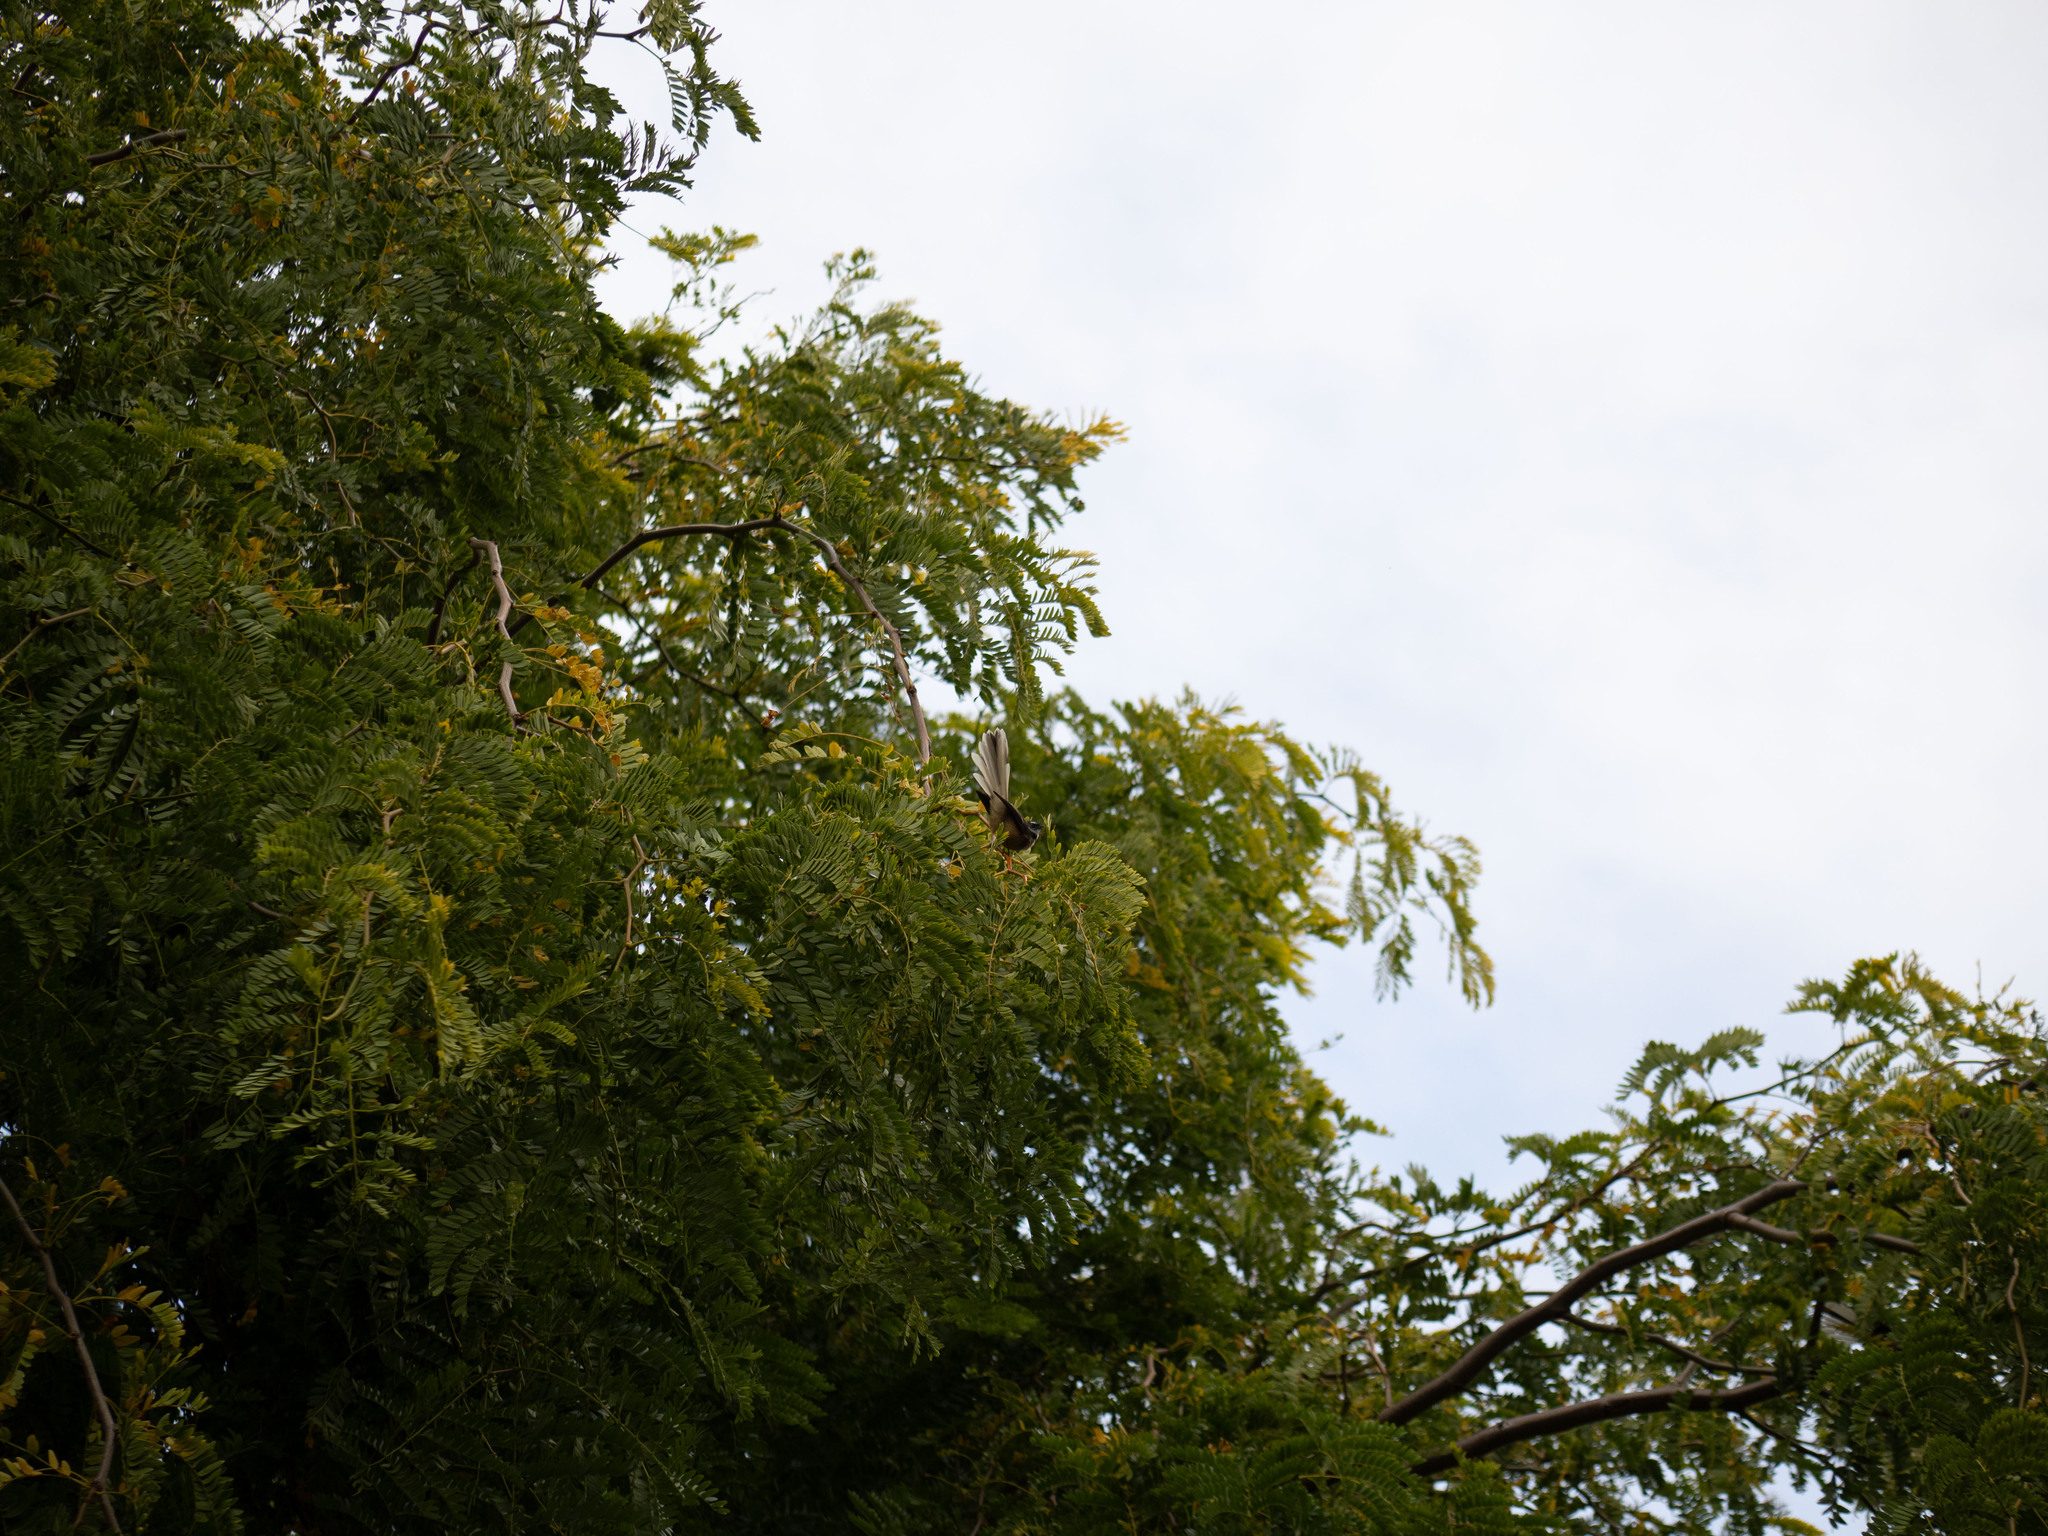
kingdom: Animalia
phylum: Chordata
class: Aves
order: Passeriformes
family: Rhipiduridae
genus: Rhipidura
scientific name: Rhipidura fuliginosa
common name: New zealand fantail
